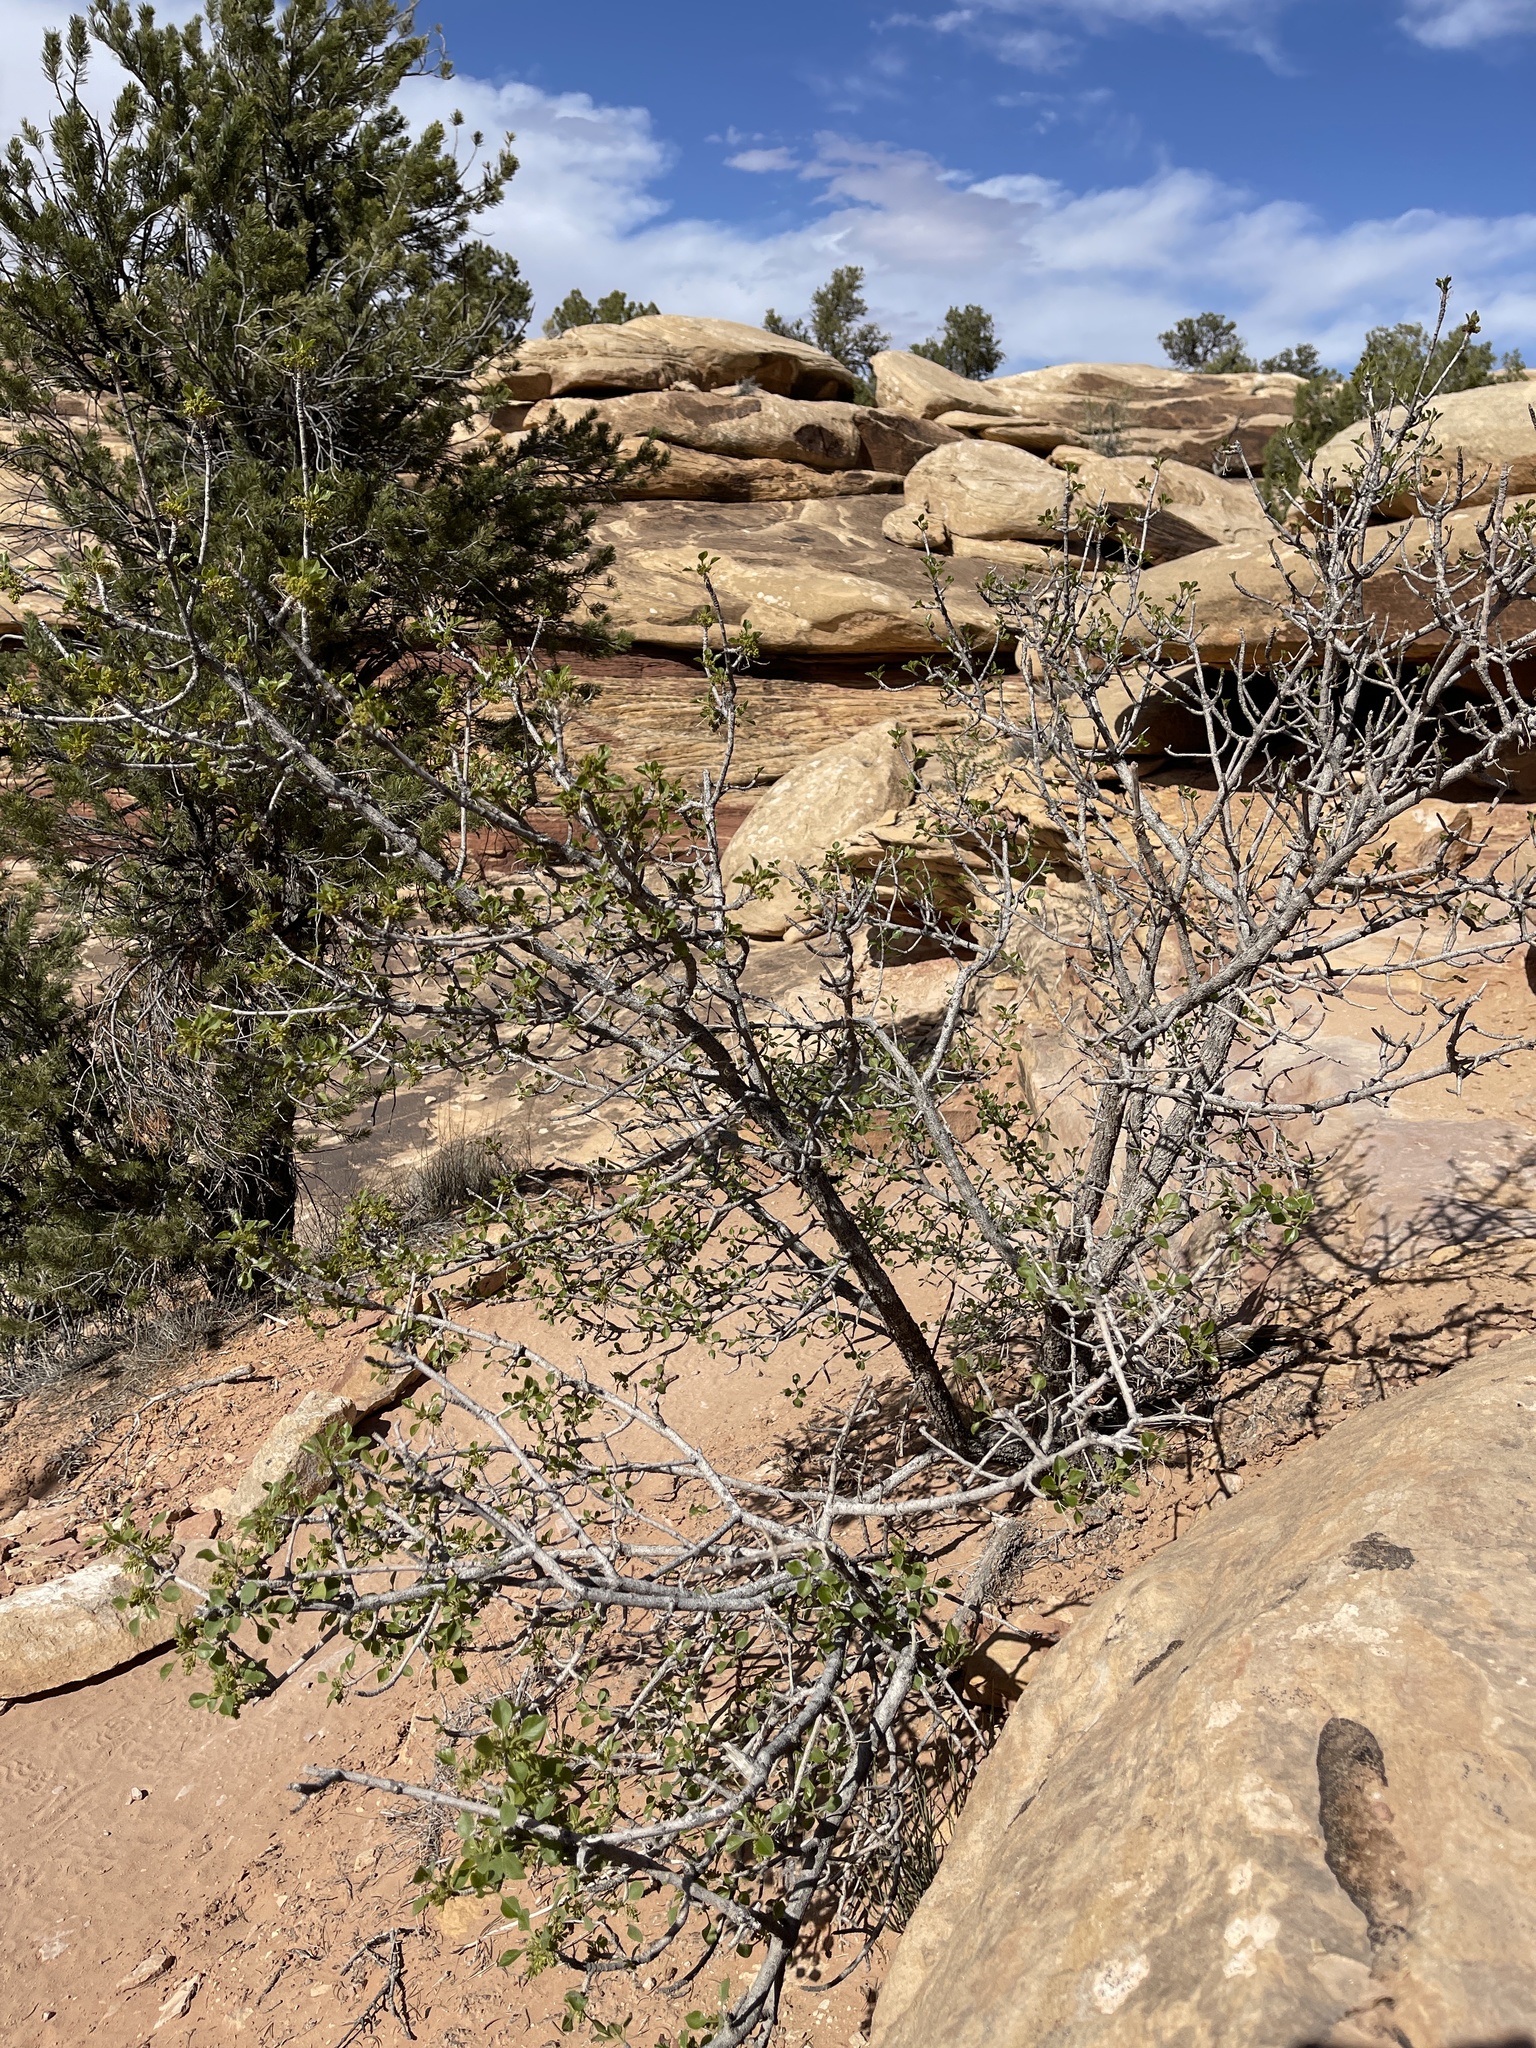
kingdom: Plantae
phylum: Tracheophyta
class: Magnoliopsida
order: Lamiales
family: Oleaceae
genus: Fraxinus
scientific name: Fraxinus anomala
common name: Utah ash
